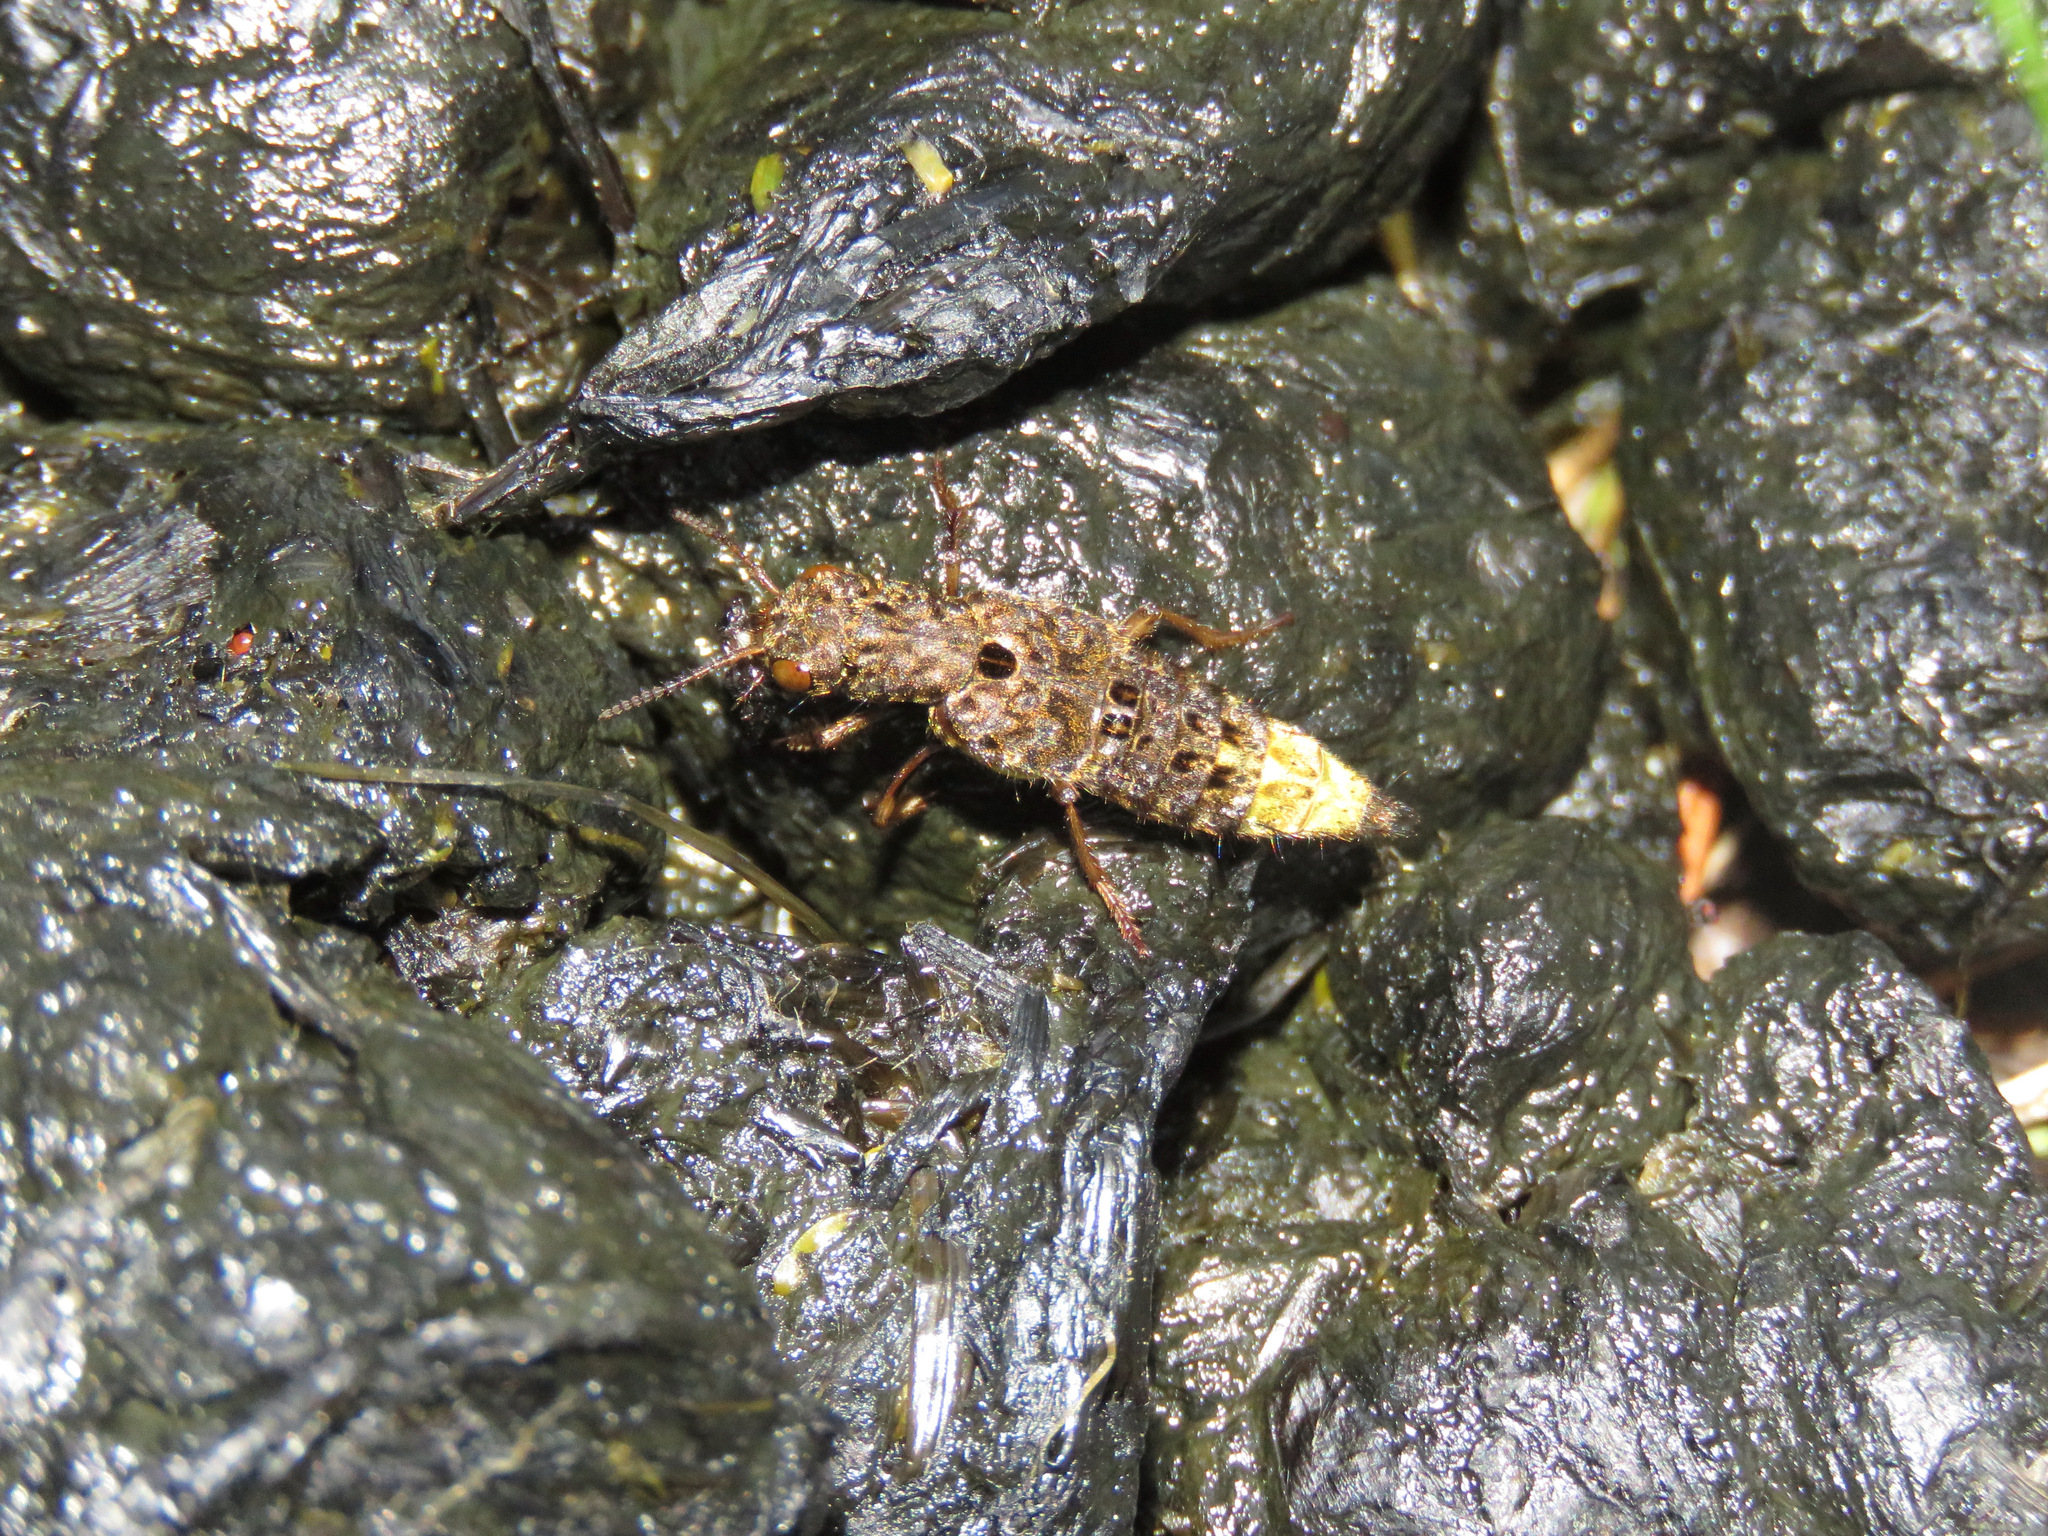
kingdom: Animalia
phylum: Arthropoda
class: Insecta
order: Coleoptera
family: Staphylinidae
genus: Ontholestes
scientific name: Ontholestes cingulatus
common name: Gold-and-brown rove beetle
